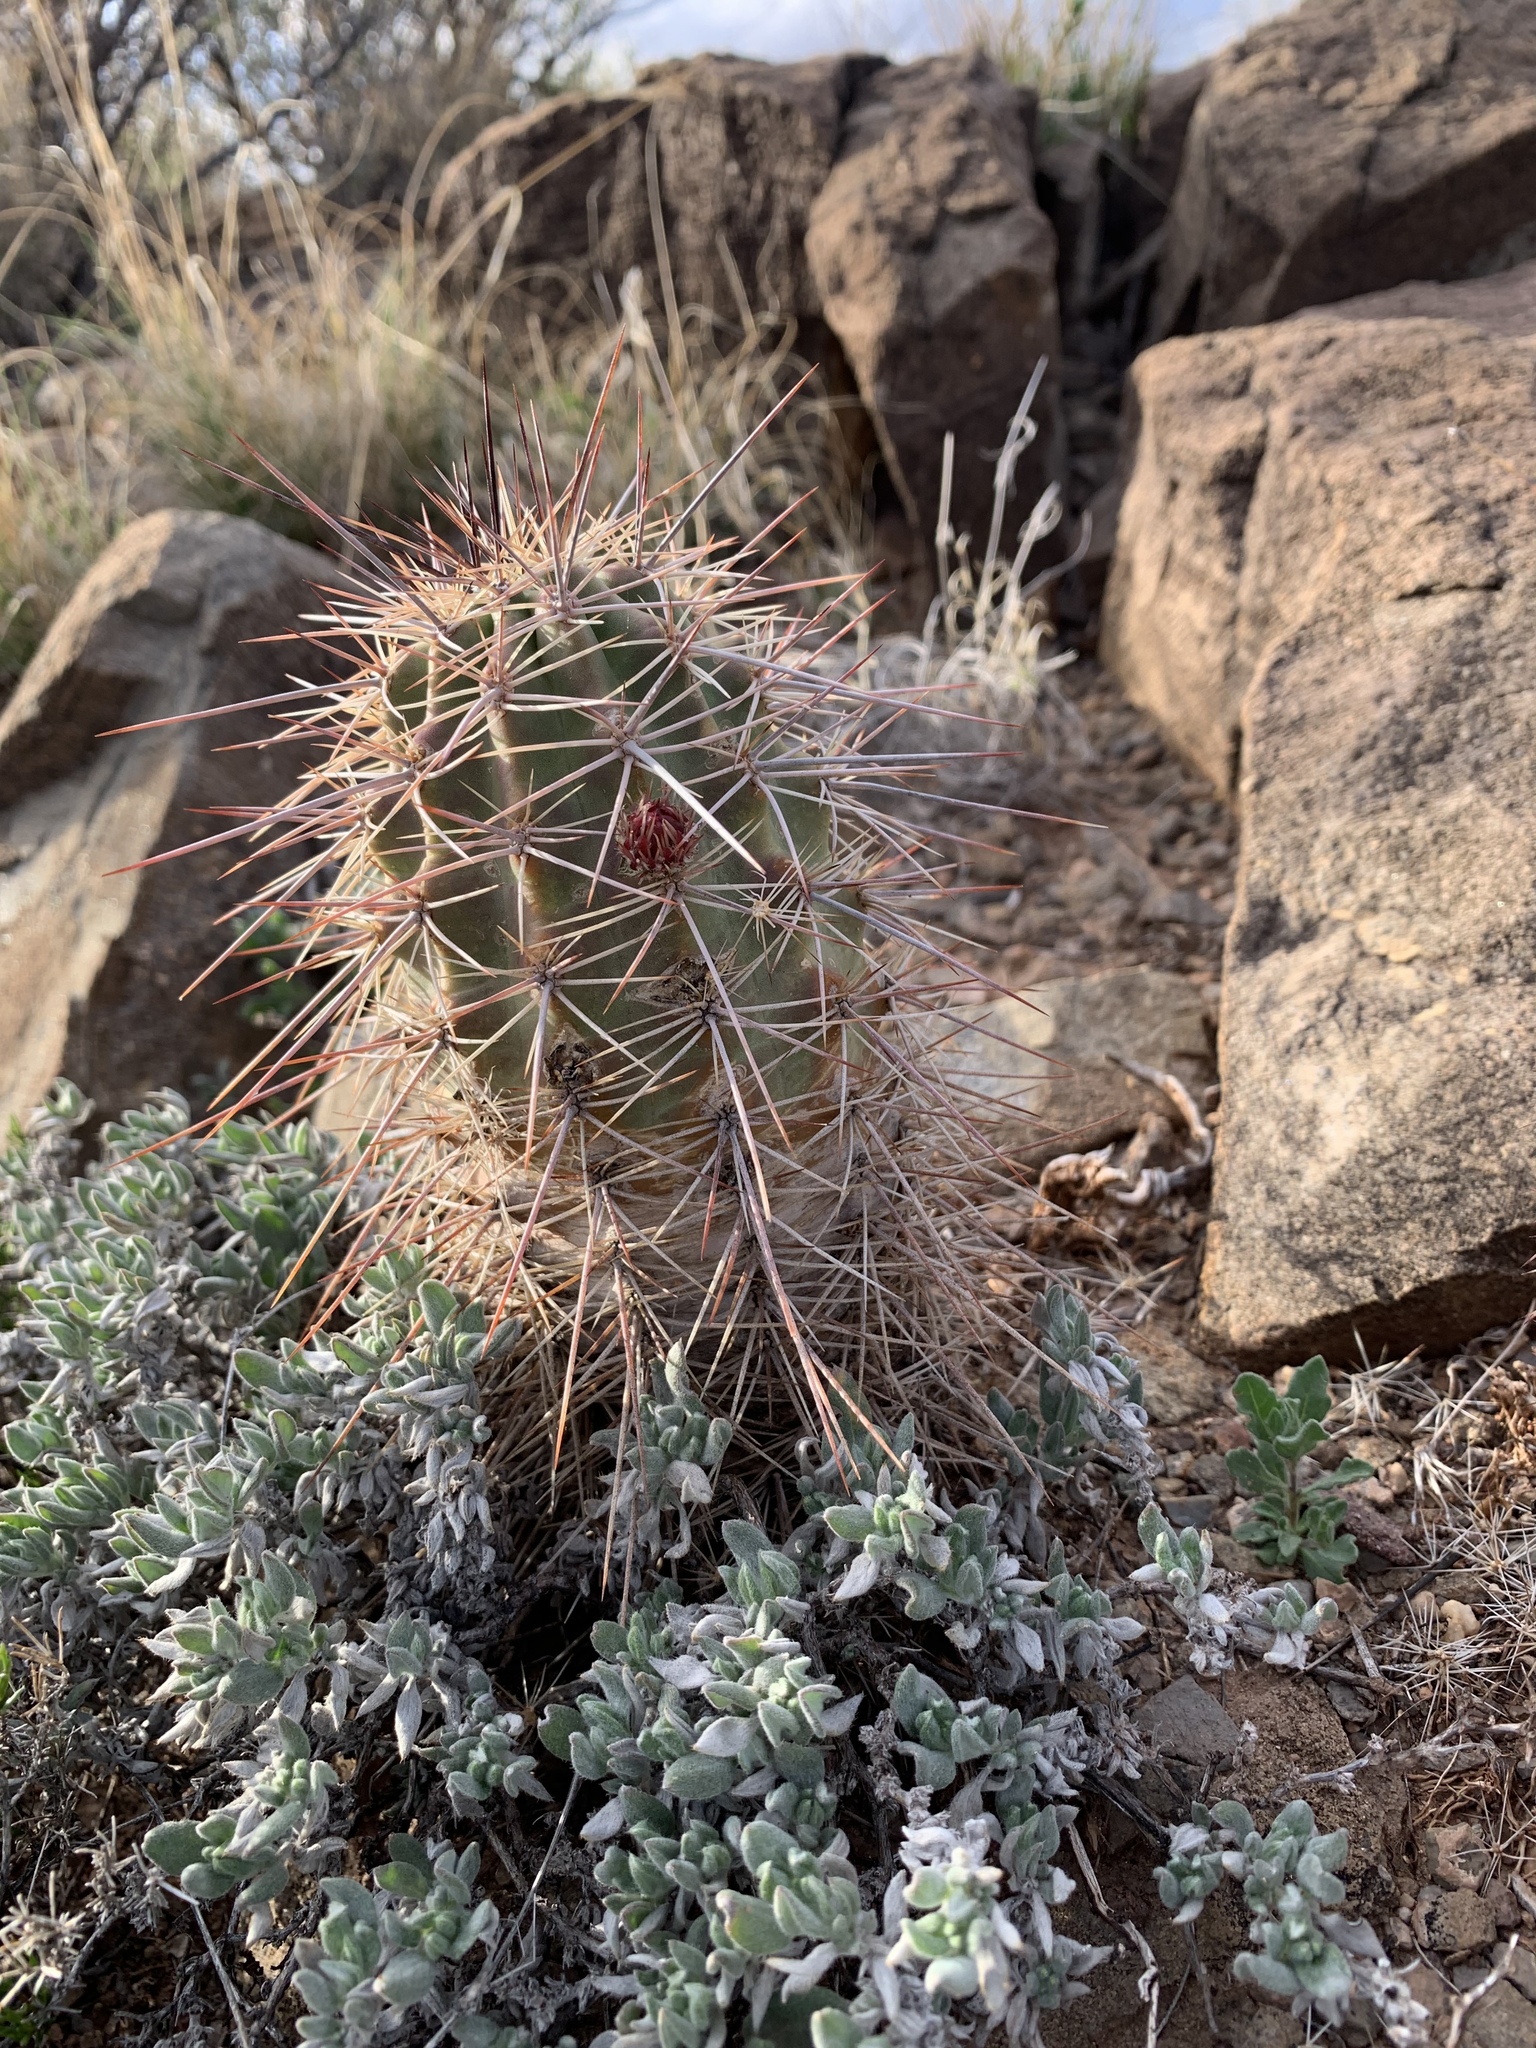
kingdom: Plantae
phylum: Tracheophyta
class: Magnoliopsida
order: Caryophyllales
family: Cactaceae
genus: Echinocereus
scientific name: Echinocereus coccineus
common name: Scarlet hedgehog cactus
